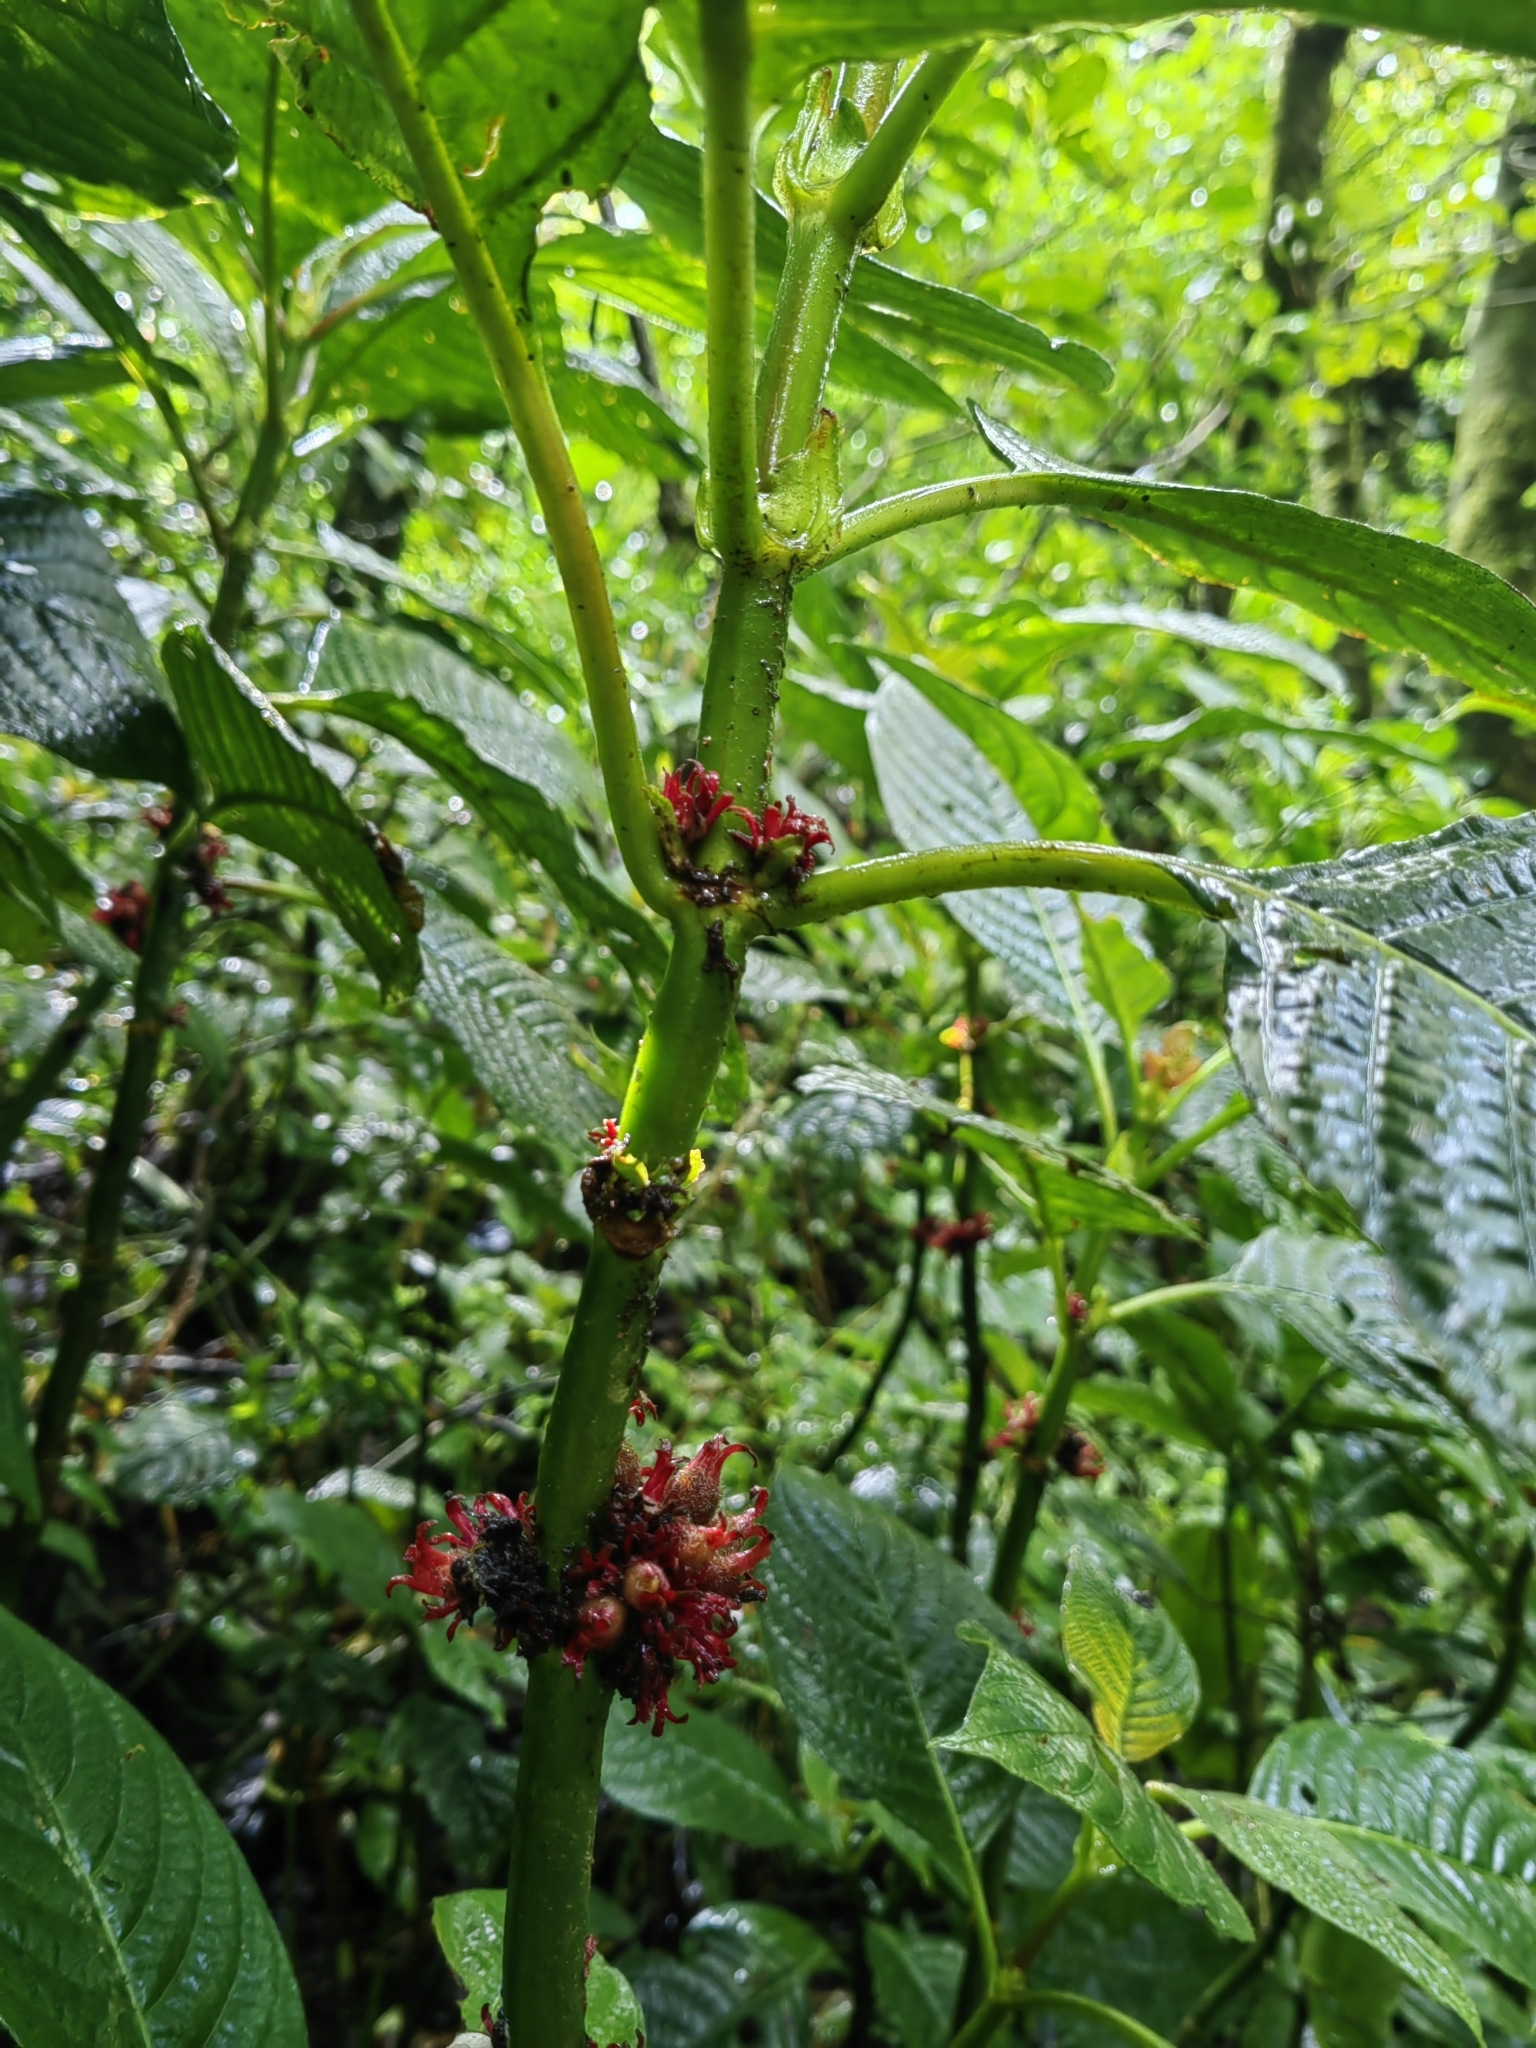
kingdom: Plantae
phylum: Tracheophyta
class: Magnoliopsida
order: Gentianales
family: Rubiaceae
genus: Hoffmannia
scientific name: Hoffmannia congesta
